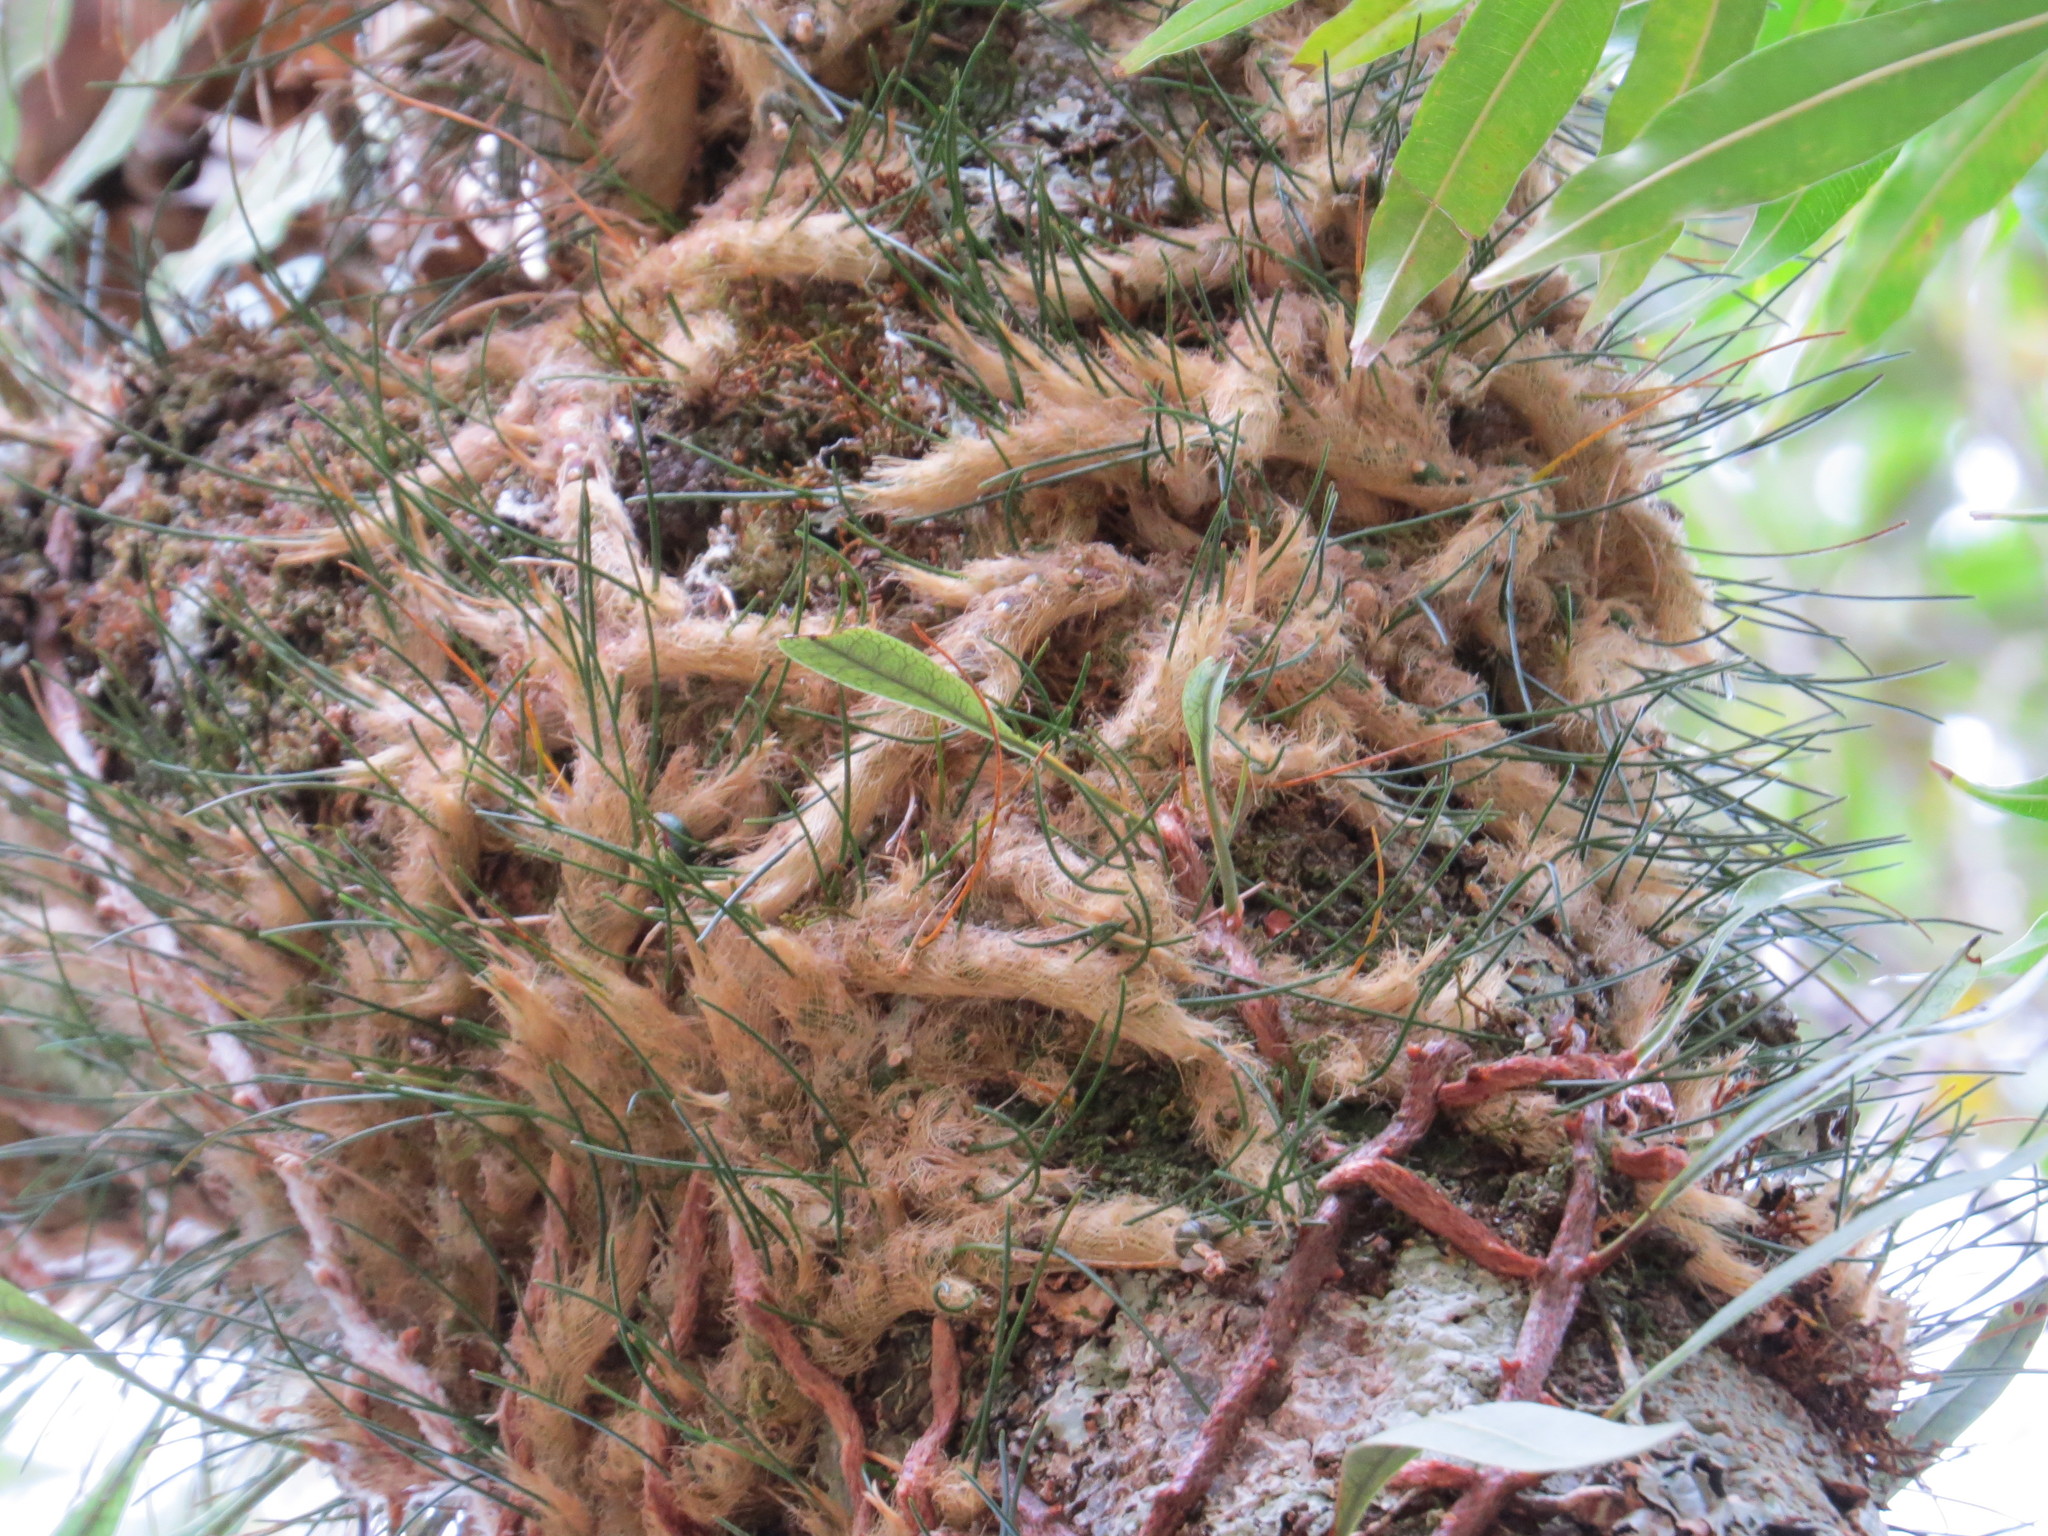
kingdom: Plantae
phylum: Tracheophyta
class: Liliopsida
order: Asparagales
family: Orchidaceae
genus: Isabelia
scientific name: Isabelia virginalis
